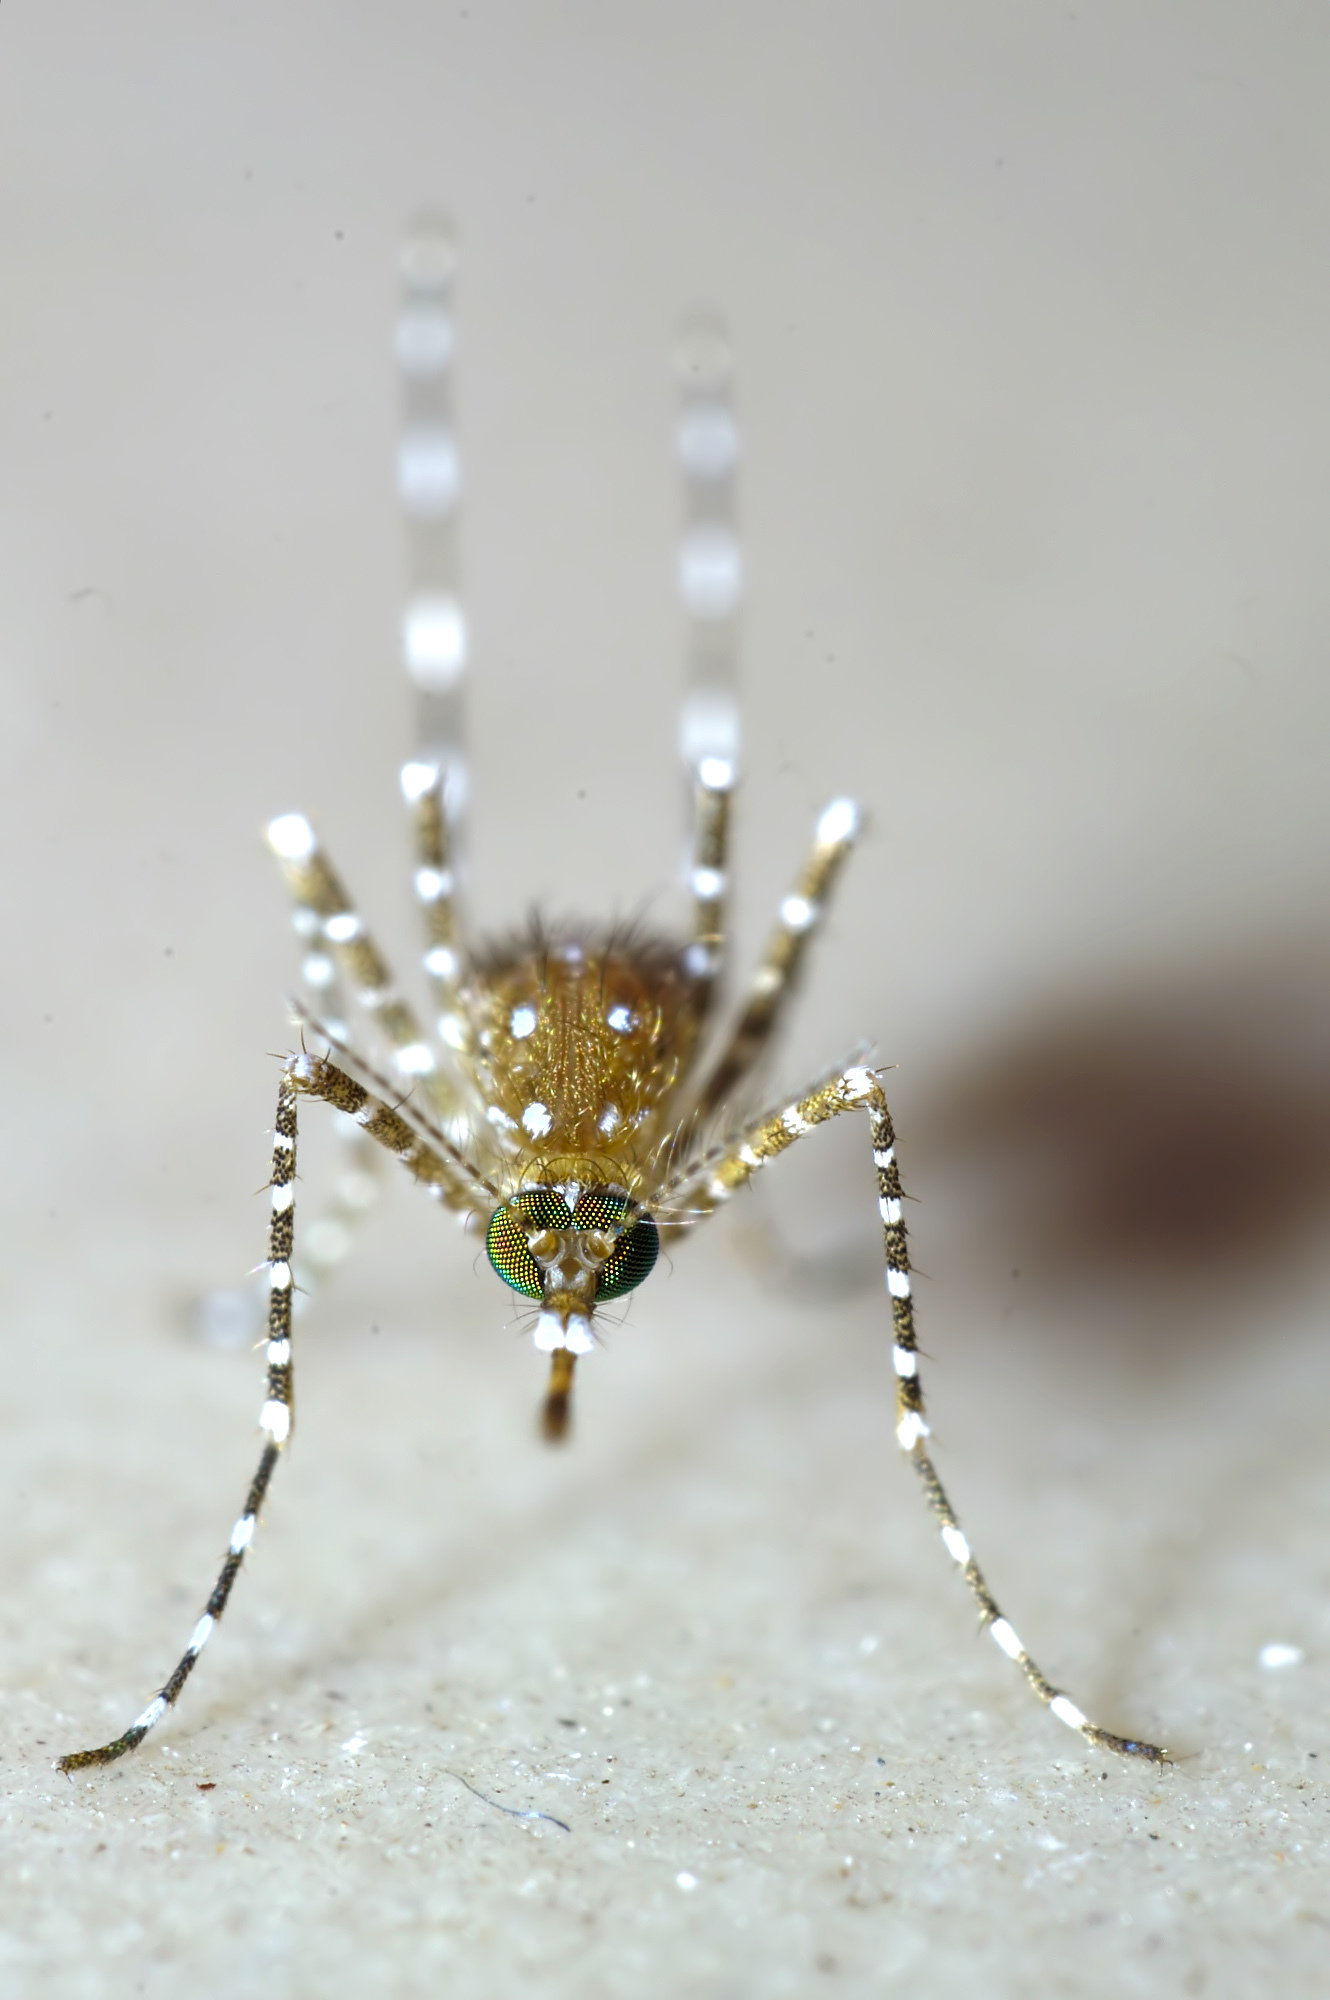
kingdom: Animalia
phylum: Arthropoda
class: Insecta
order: Diptera
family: Culicidae
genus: Mansonia
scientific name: Mansonia annulifera
